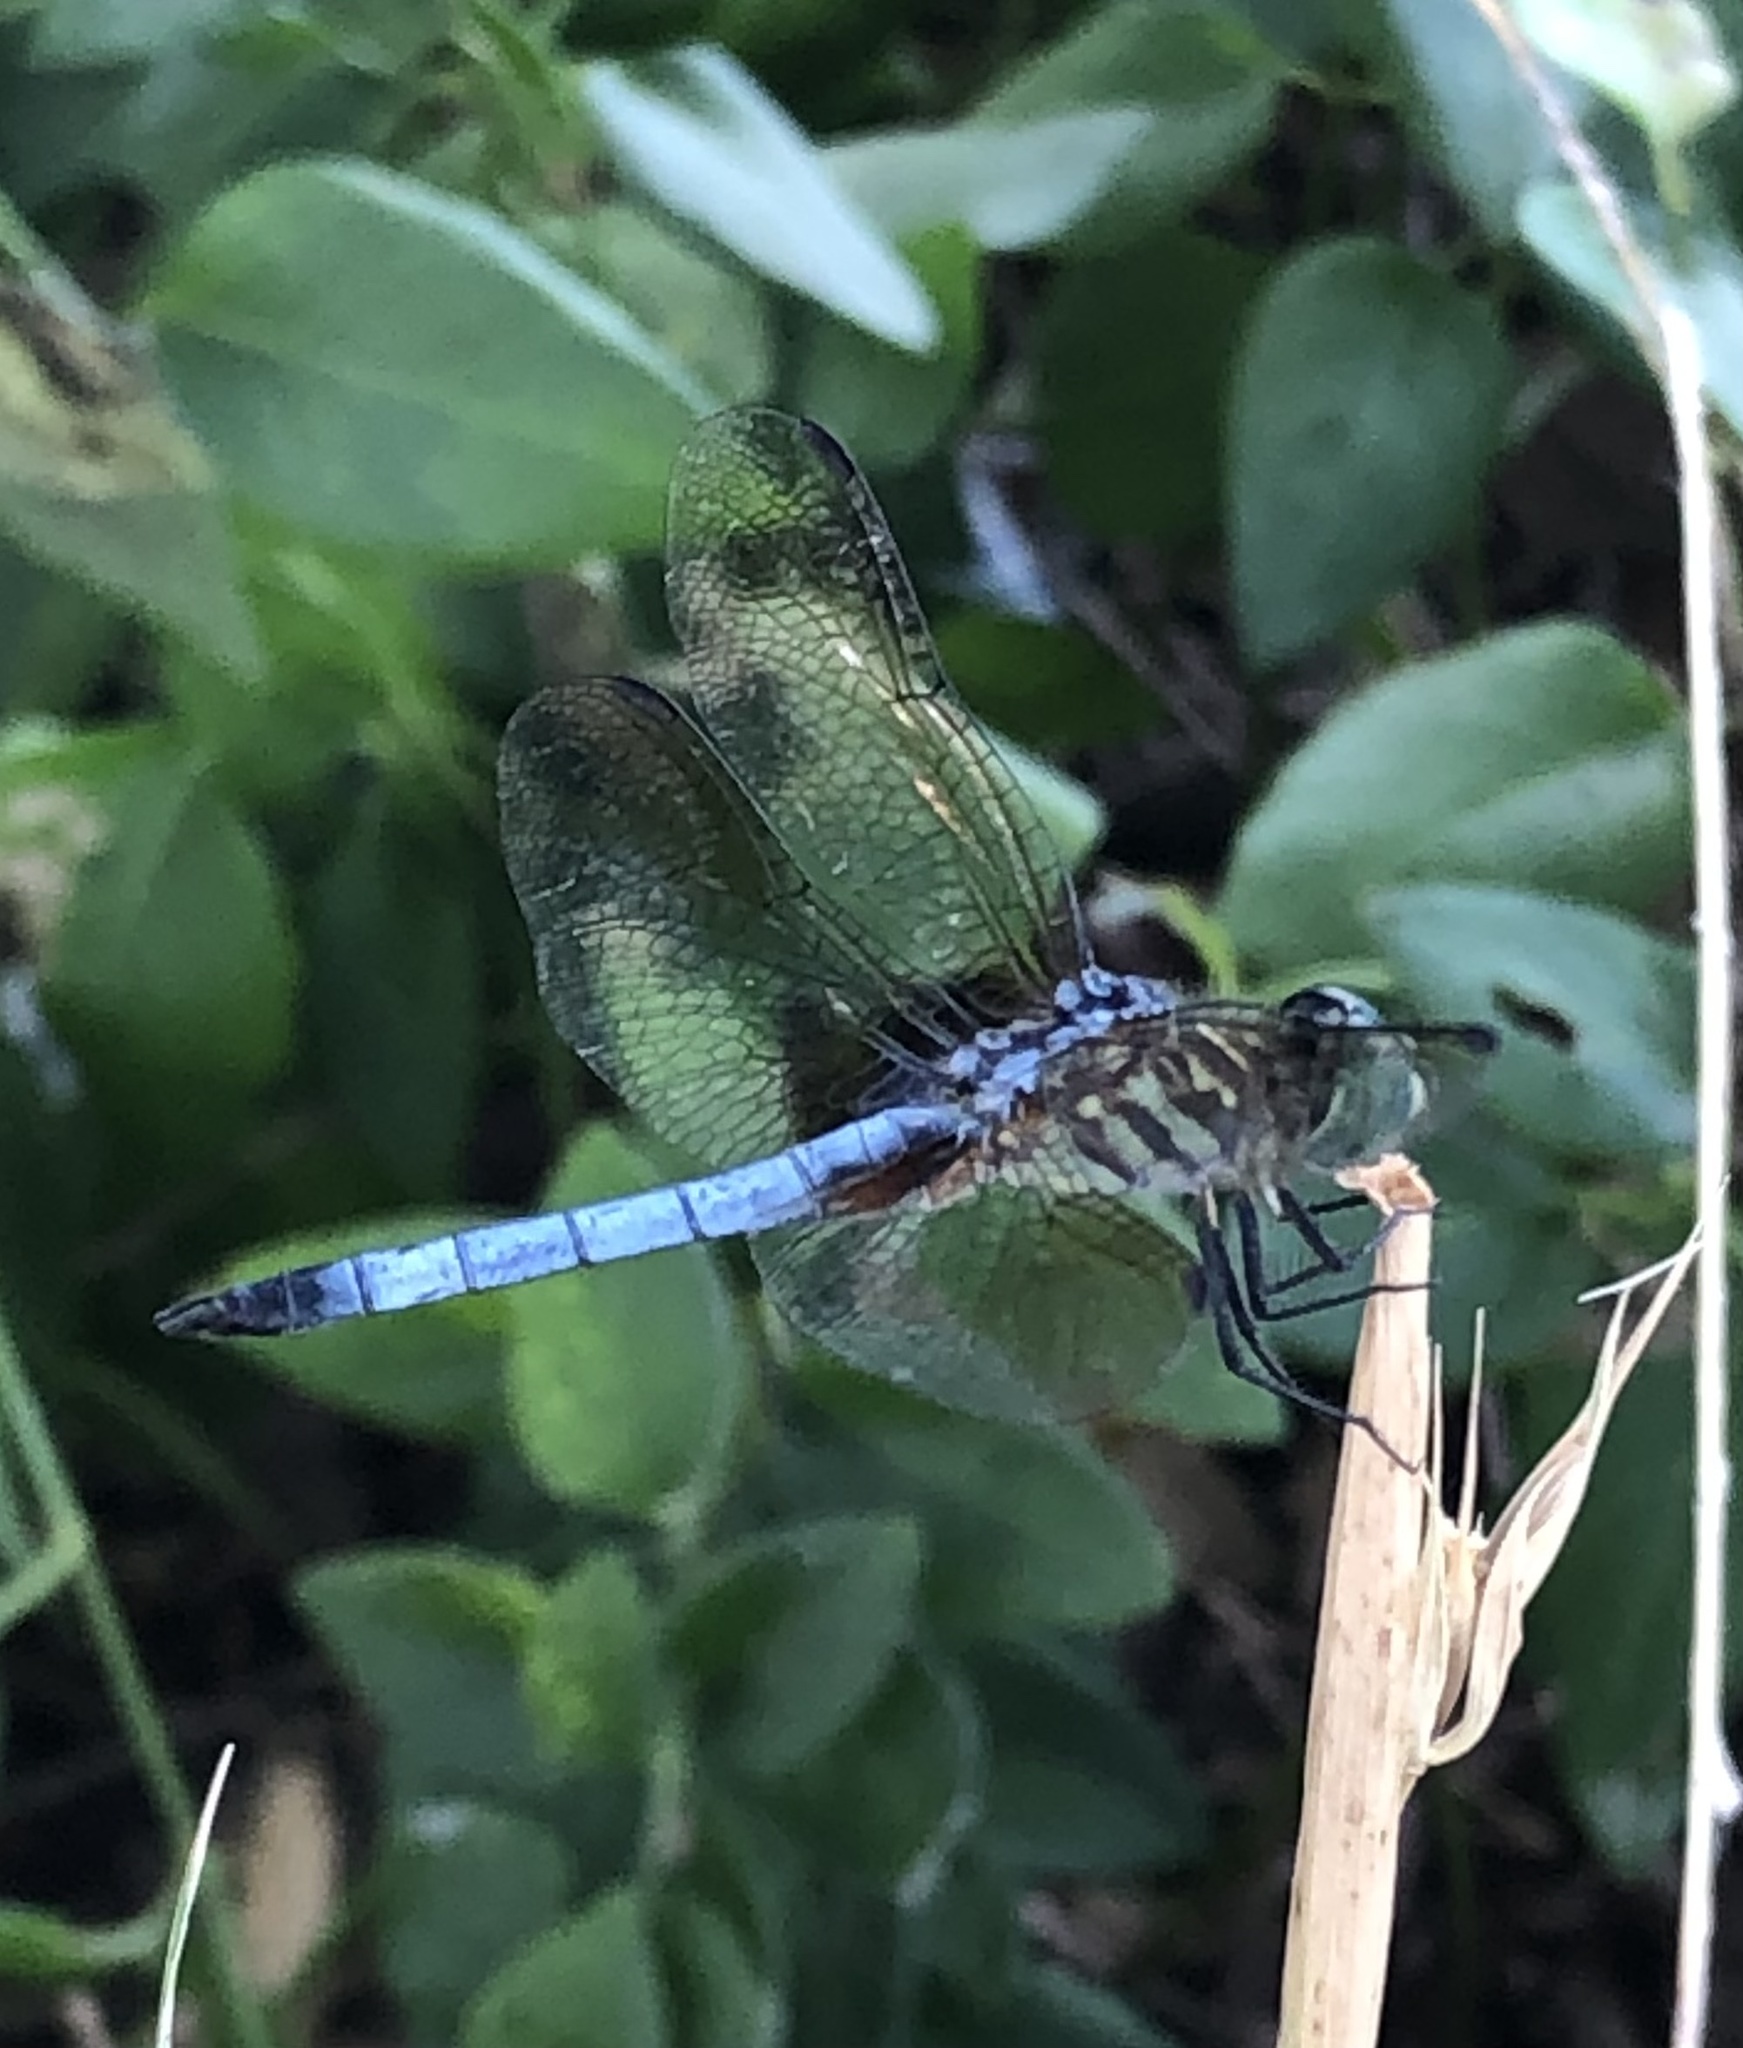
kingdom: Animalia
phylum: Arthropoda
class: Insecta
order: Odonata
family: Libellulidae
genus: Pachydiplax
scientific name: Pachydiplax longipennis
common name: Blue dasher
